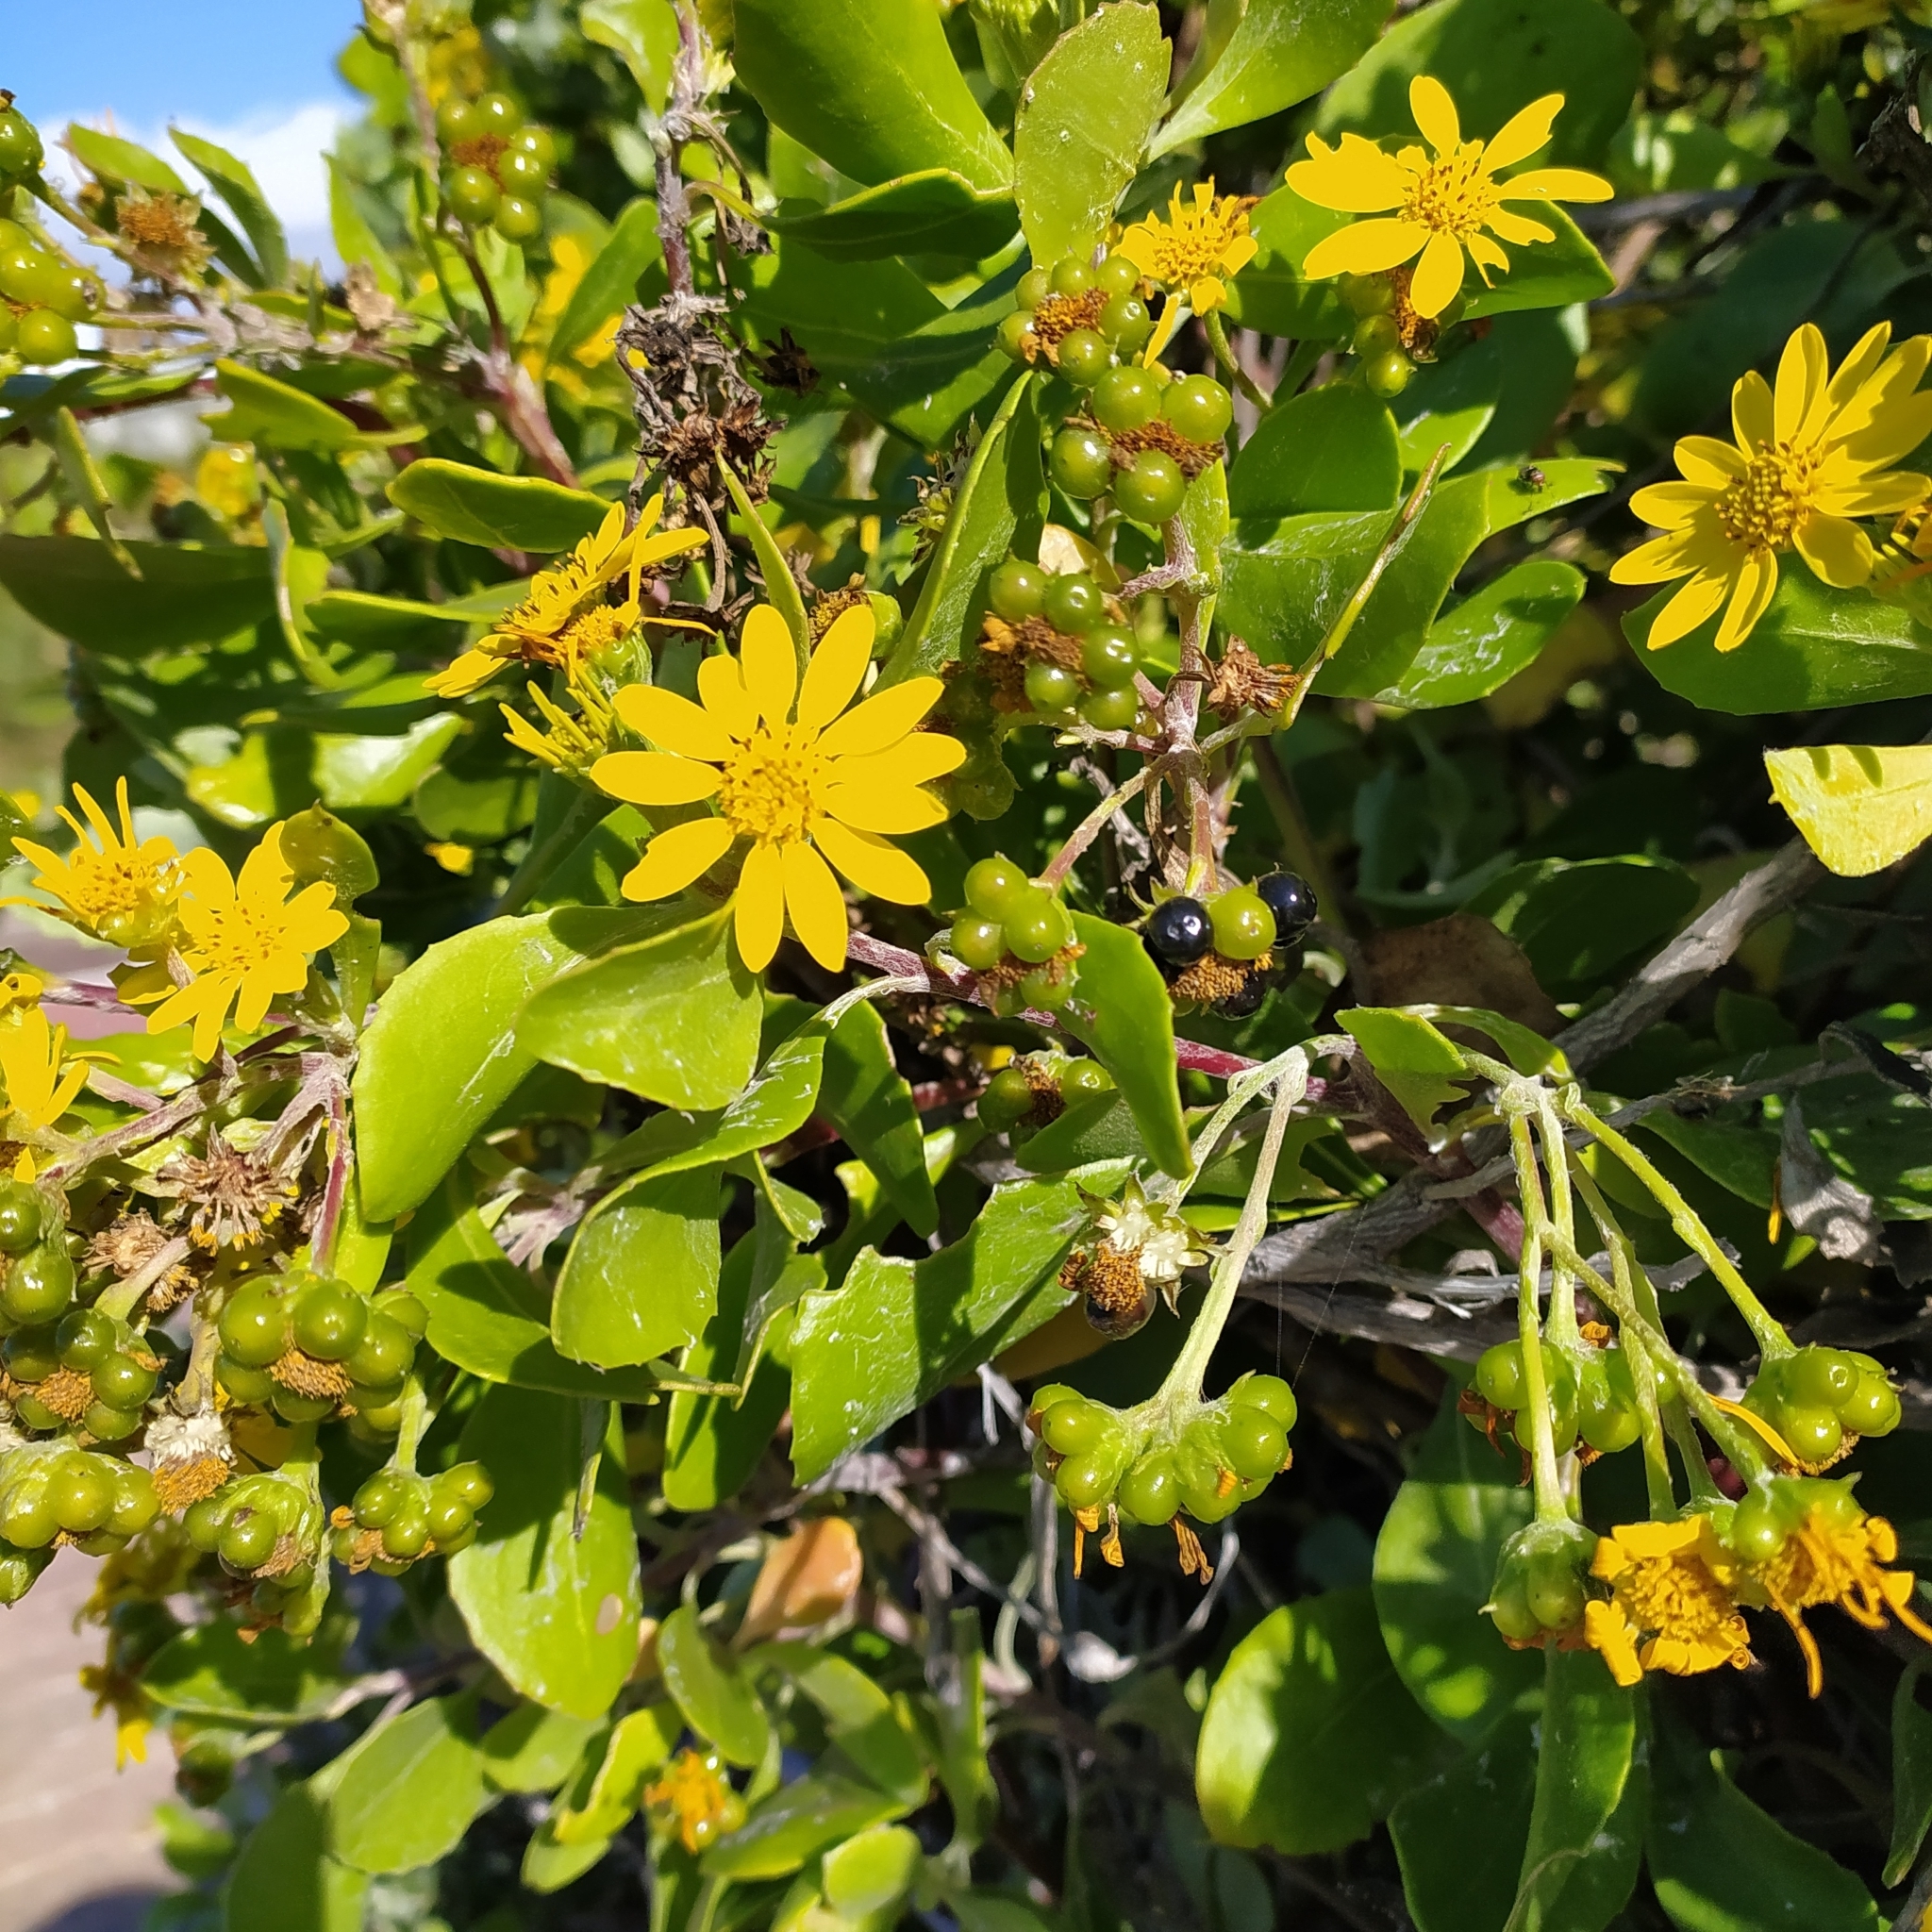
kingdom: Plantae
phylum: Tracheophyta
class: Magnoliopsida
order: Asterales
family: Asteraceae
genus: Osteospermum
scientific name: Osteospermum moniliferum
